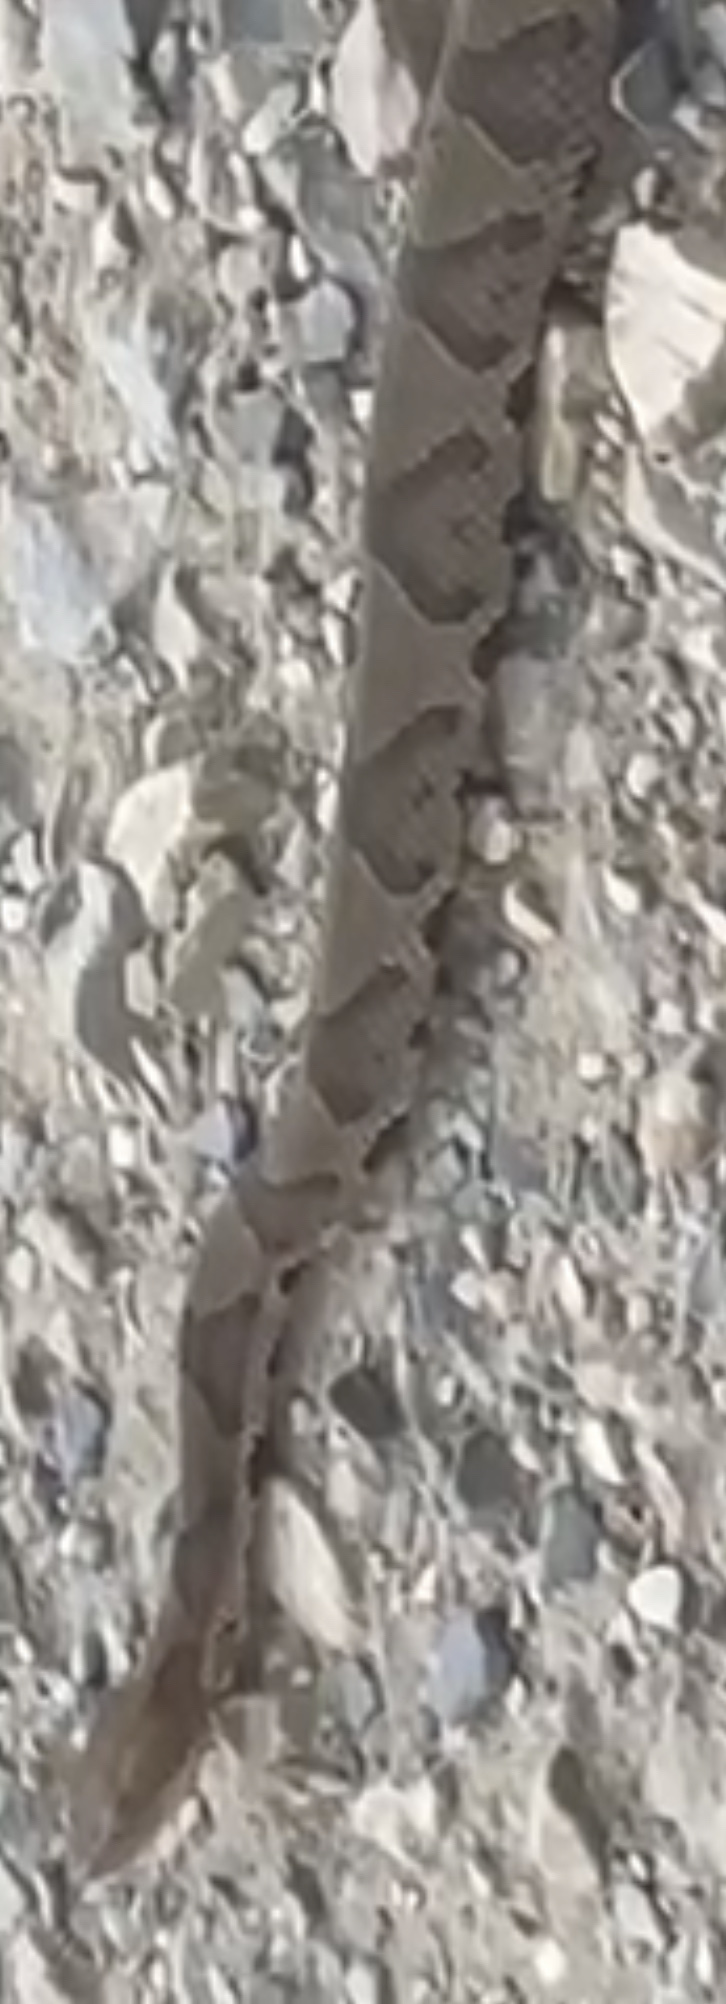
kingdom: Animalia
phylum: Chordata
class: Squamata
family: Viperidae
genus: Agkistrodon
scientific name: Agkistrodon contortrix
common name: Northern copperhead
